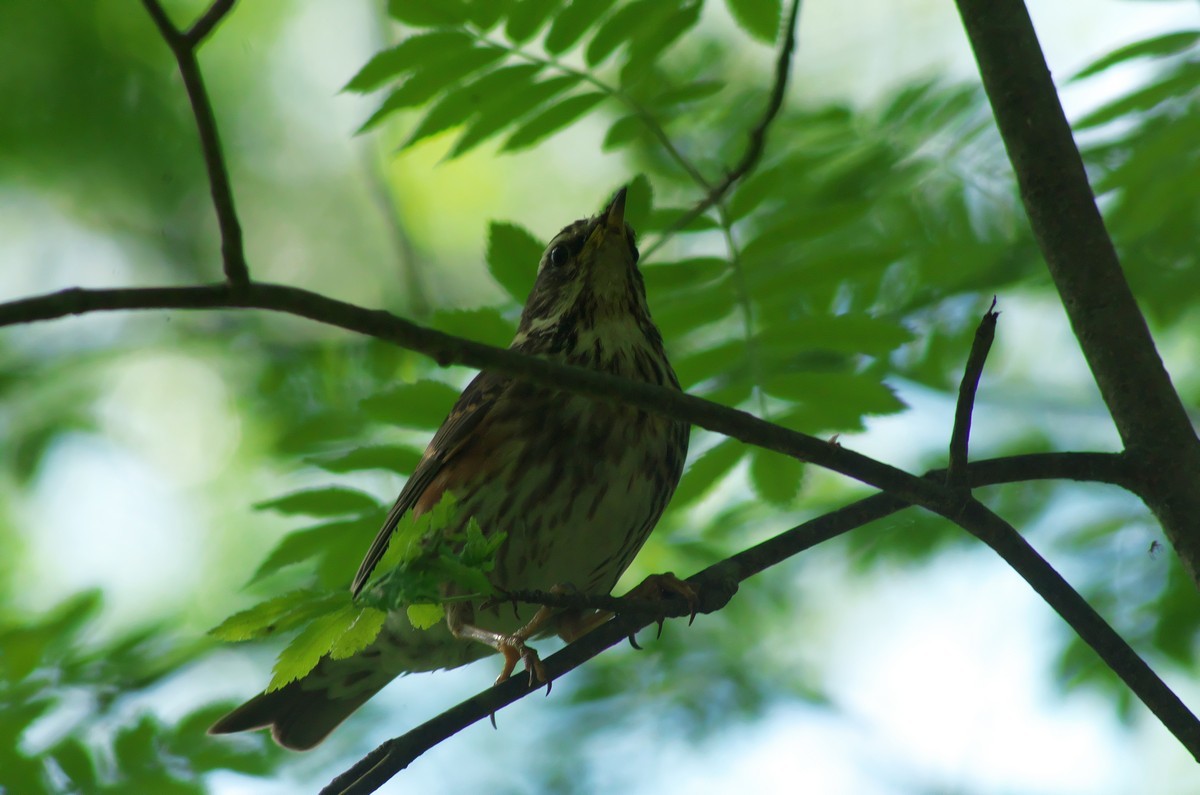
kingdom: Animalia
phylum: Chordata
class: Aves
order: Passeriformes
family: Turdidae
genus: Turdus
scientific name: Turdus iliacus
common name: Redwing
